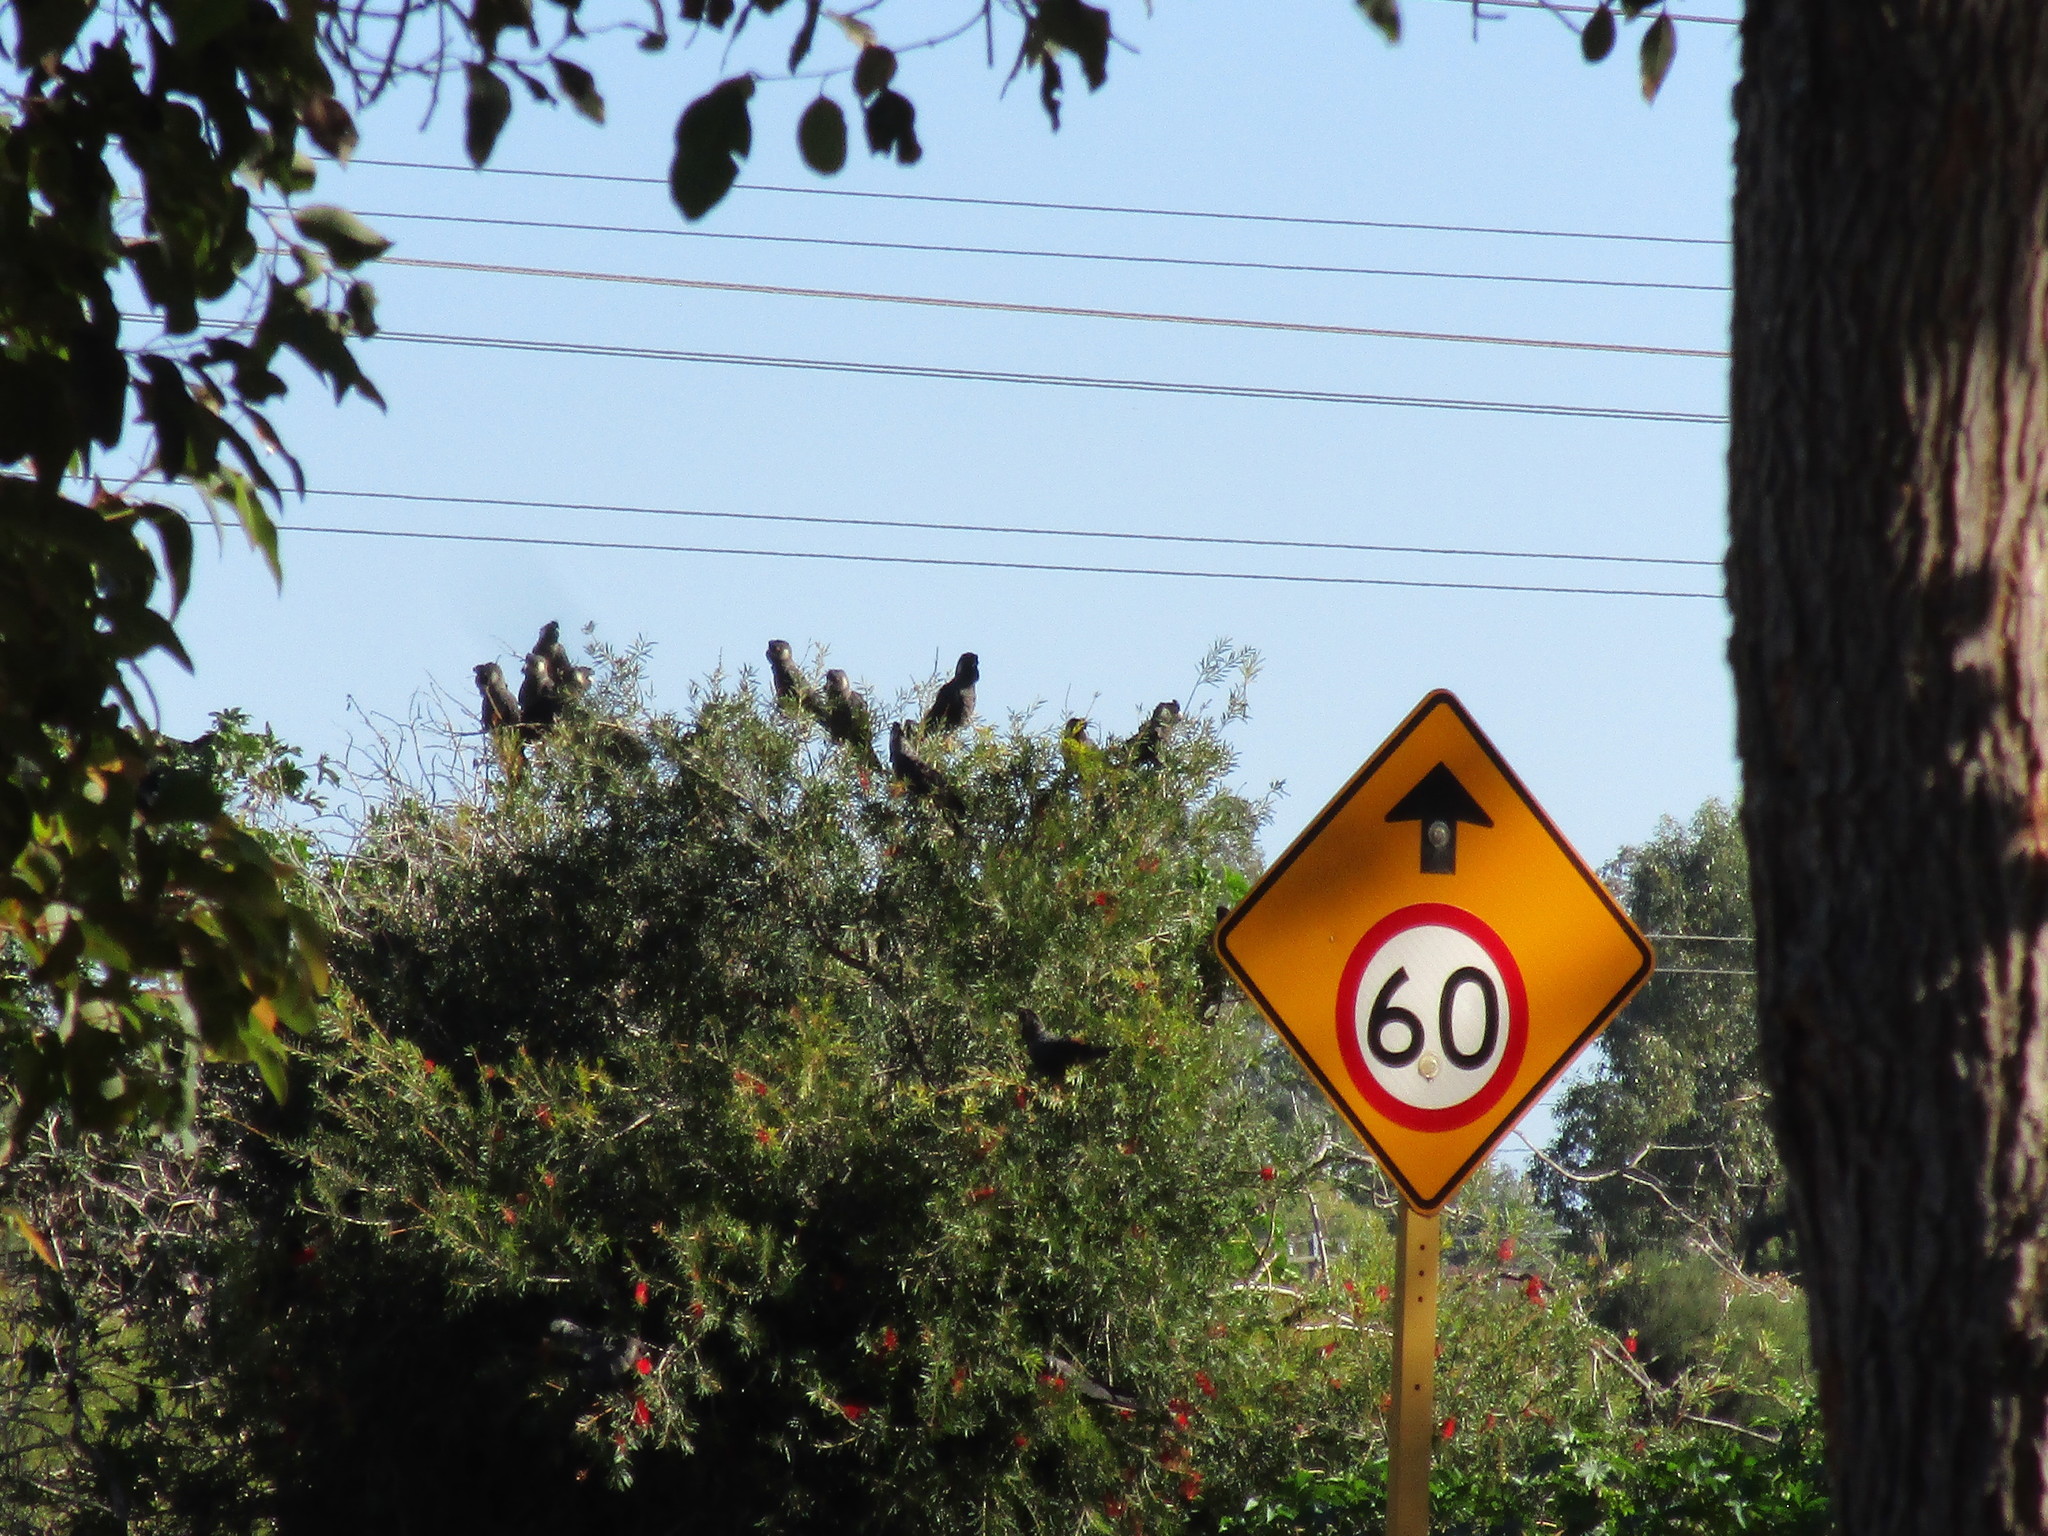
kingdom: Animalia
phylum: Chordata
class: Aves
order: Psittaciformes
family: Cacatuidae
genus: Zanda
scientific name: Zanda latirostris
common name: Short-billed black-cockatoo
